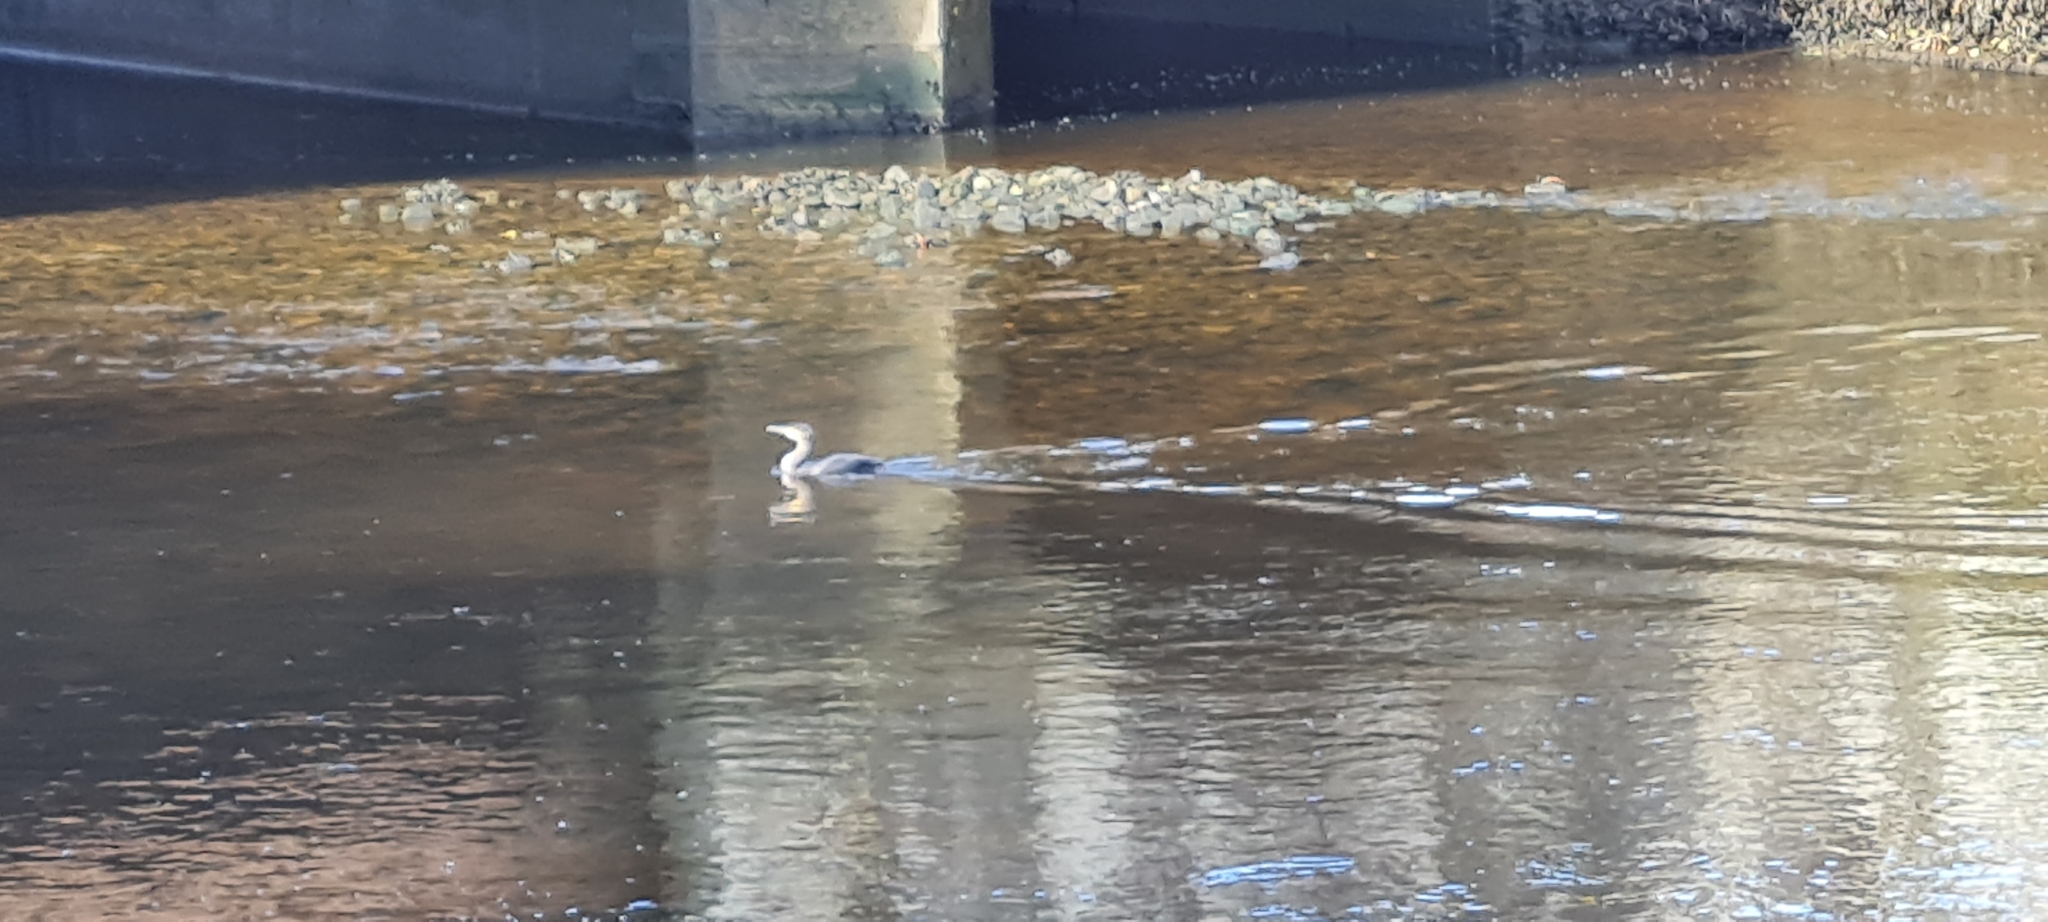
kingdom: Animalia
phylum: Chordata
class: Aves
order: Suliformes
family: Phalacrocoracidae
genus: Phalacrocorax
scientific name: Phalacrocorax carbo
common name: Great cormorant
